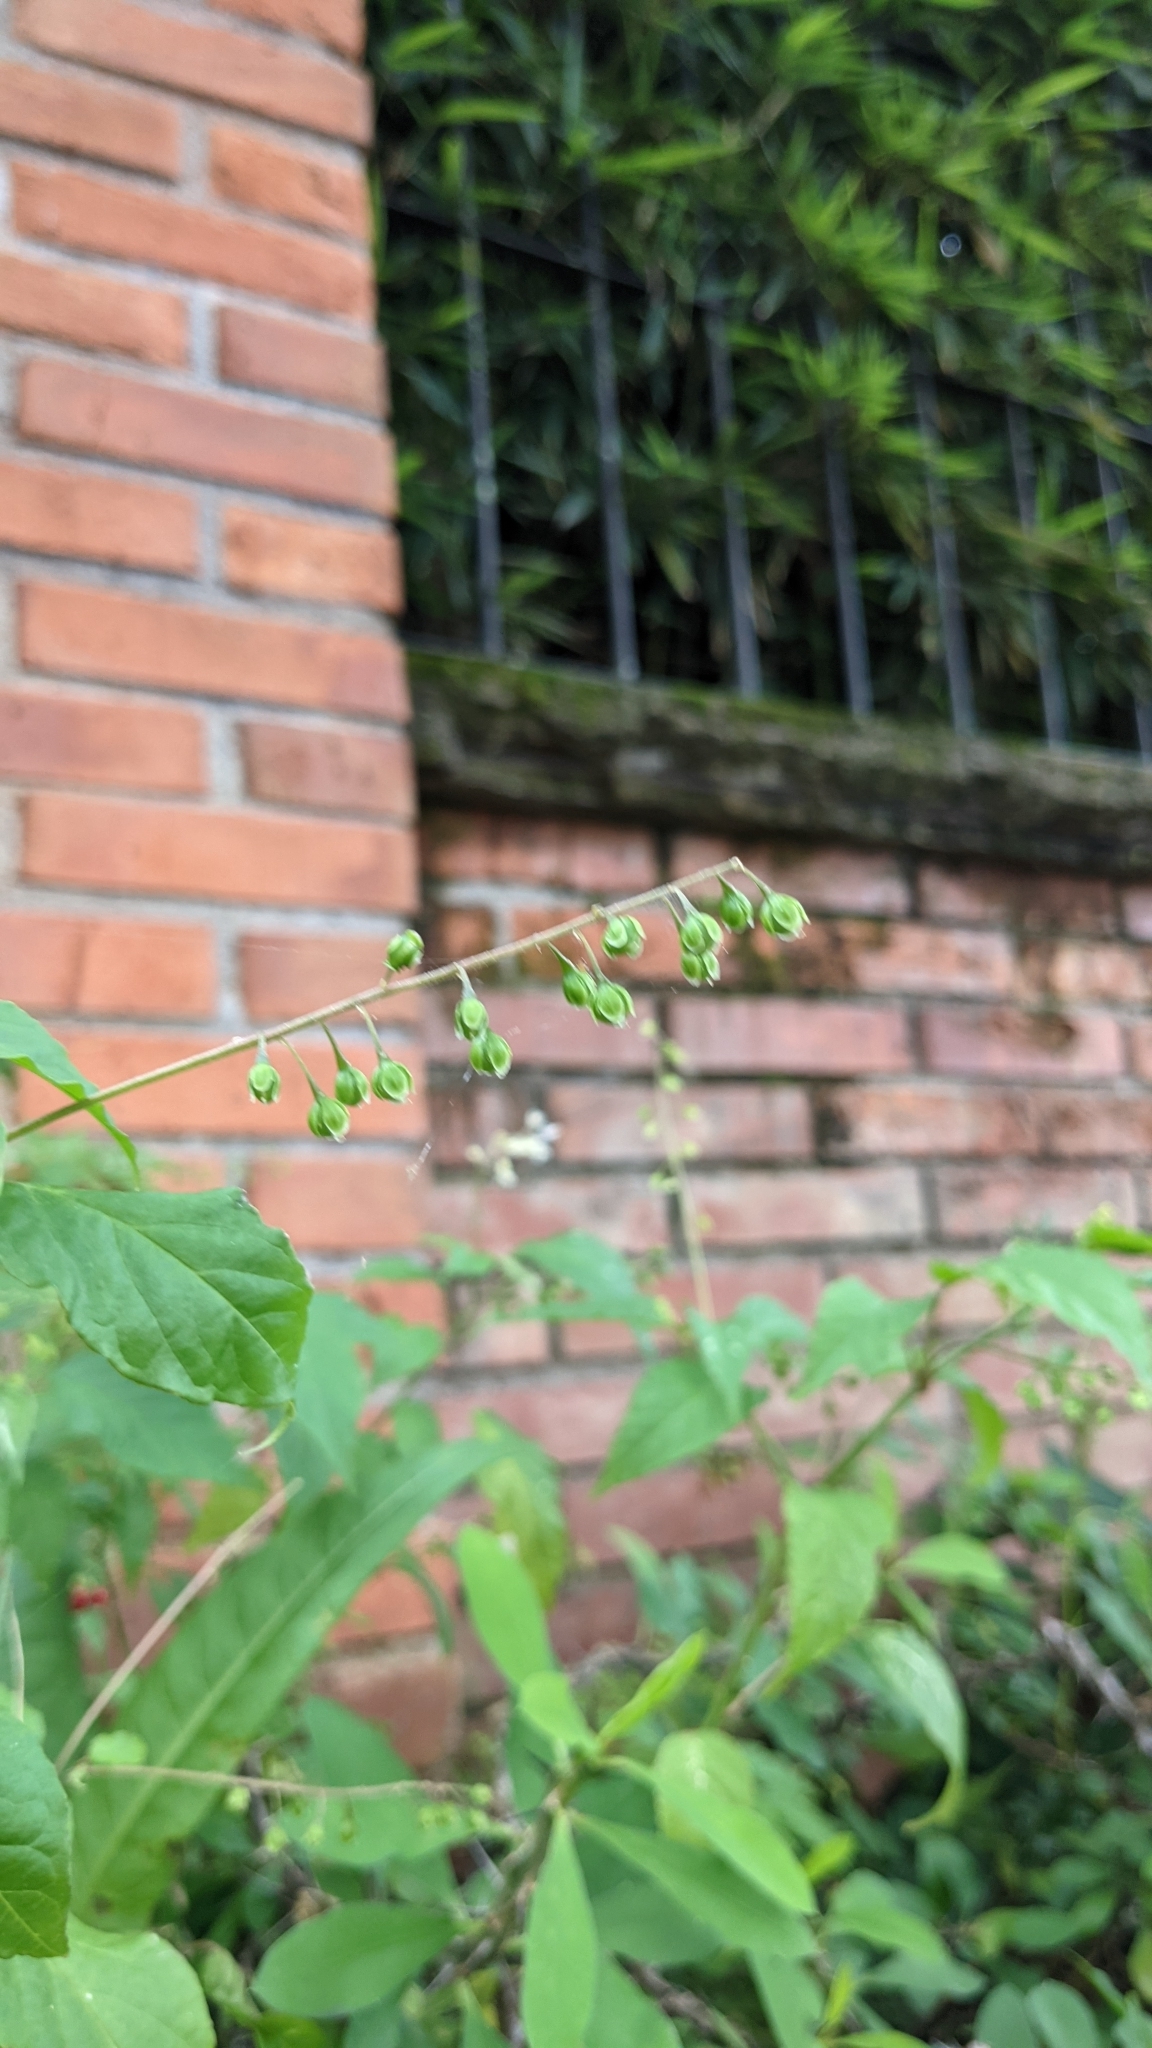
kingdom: Plantae
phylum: Tracheophyta
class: Magnoliopsida
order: Caryophyllales
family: Phytolaccaceae
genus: Rivina
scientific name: Rivina humilis
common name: Rougeplant
